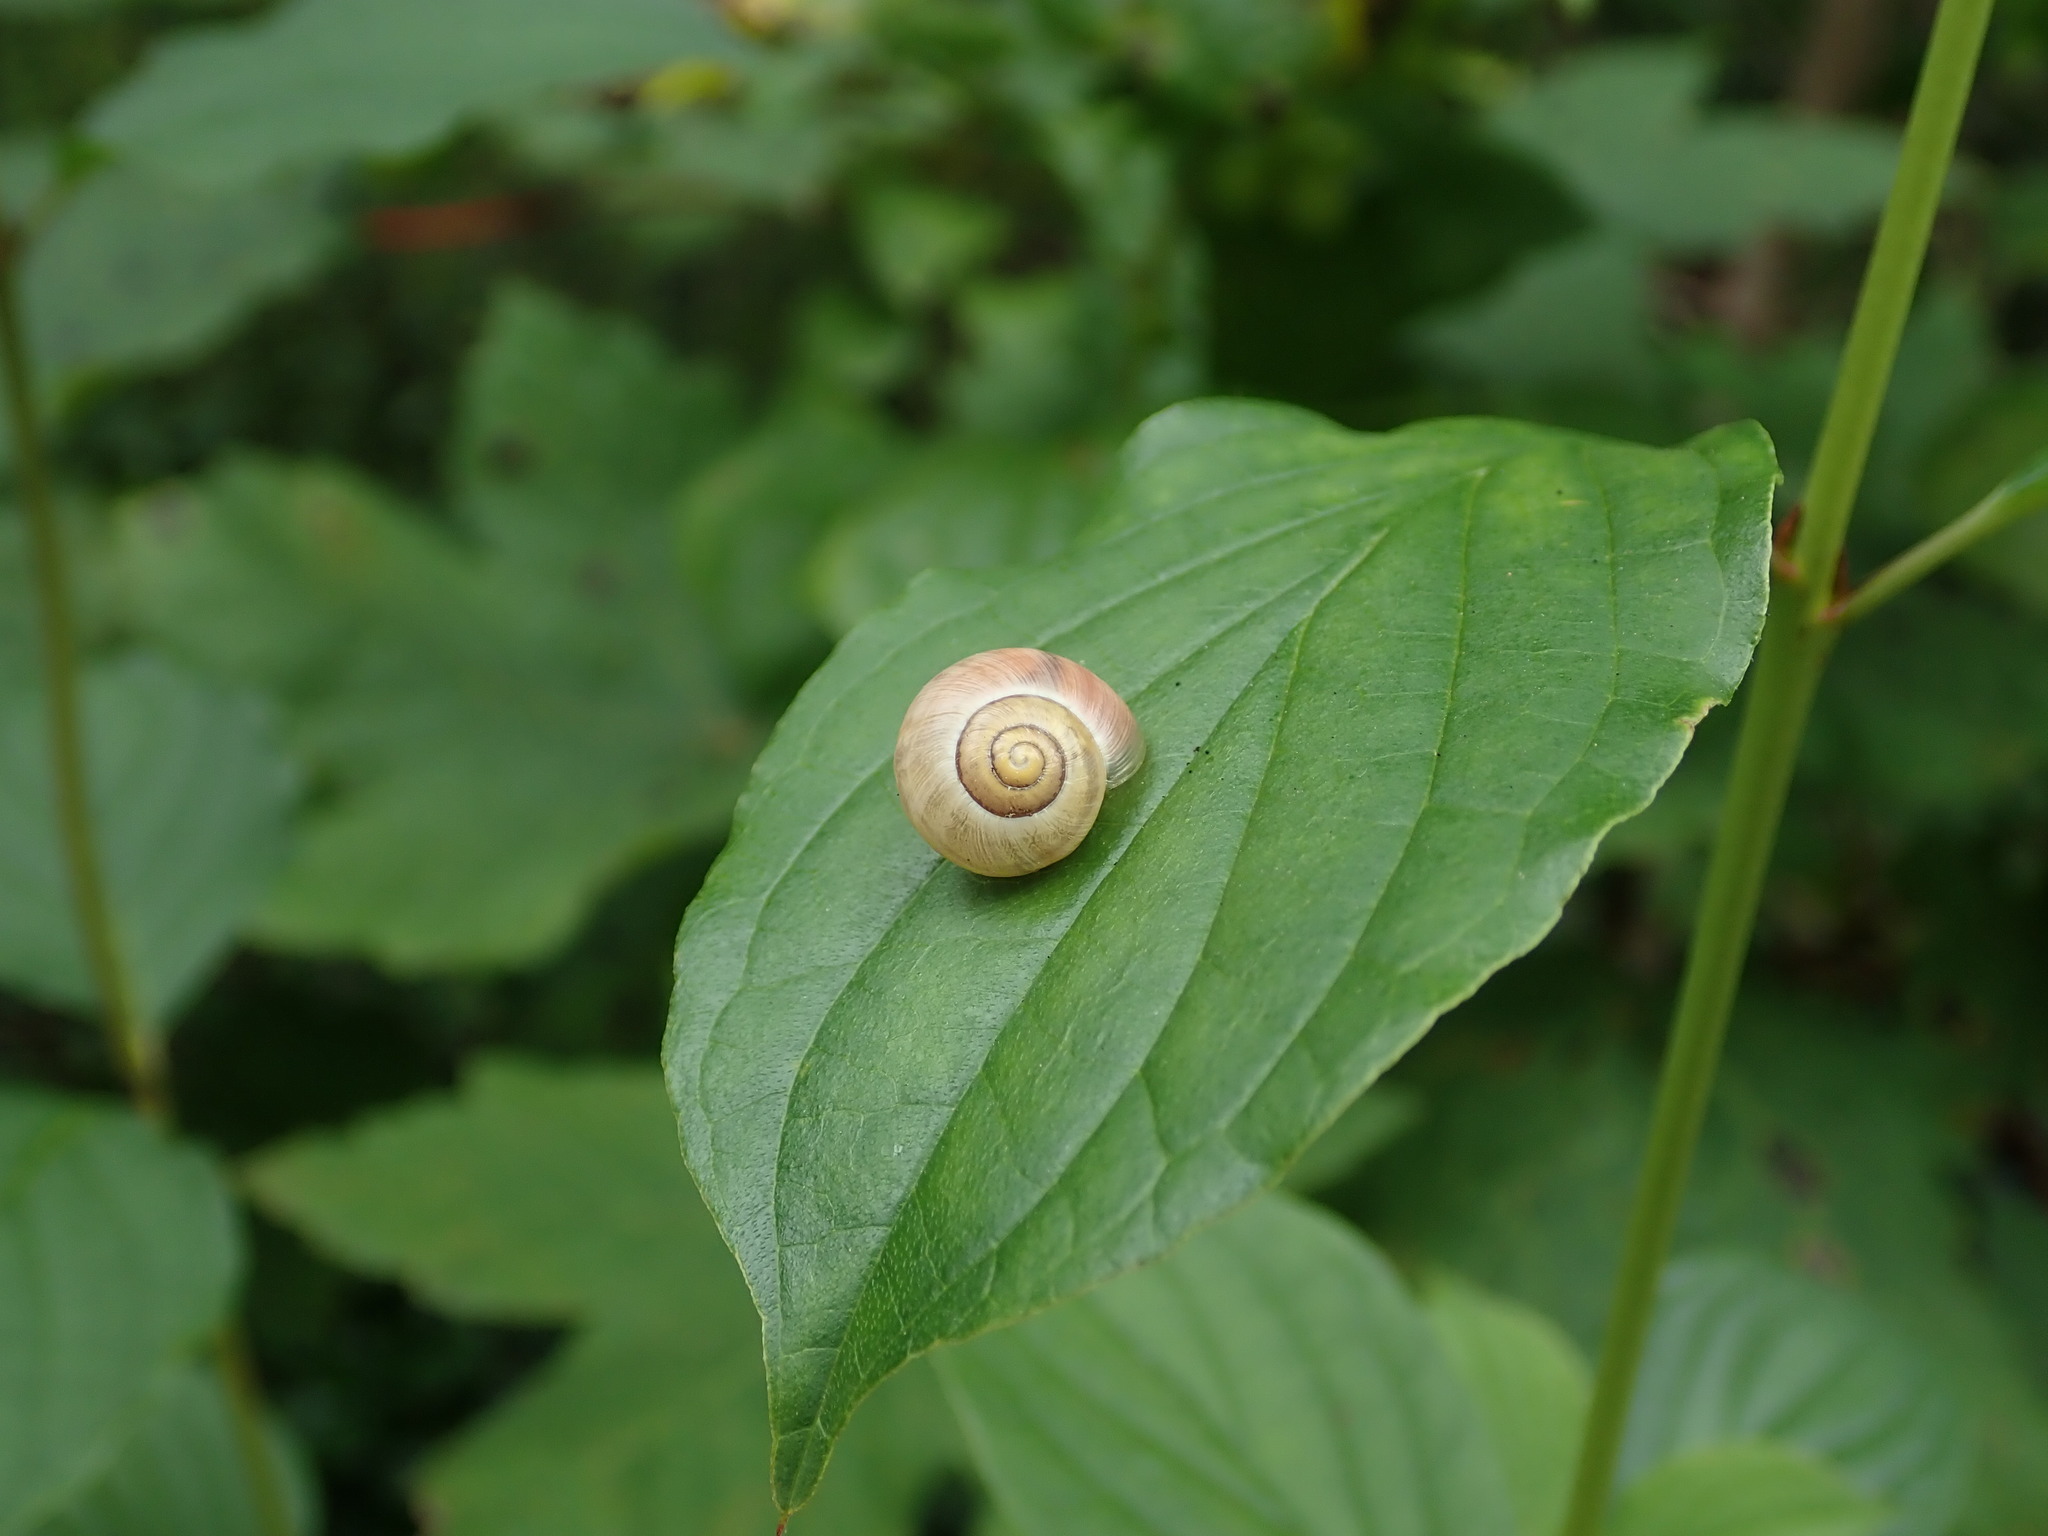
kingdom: Animalia
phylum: Mollusca
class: Gastropoda
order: Stylommatophora
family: Helicidae
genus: Cepaea
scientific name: Cepaea
